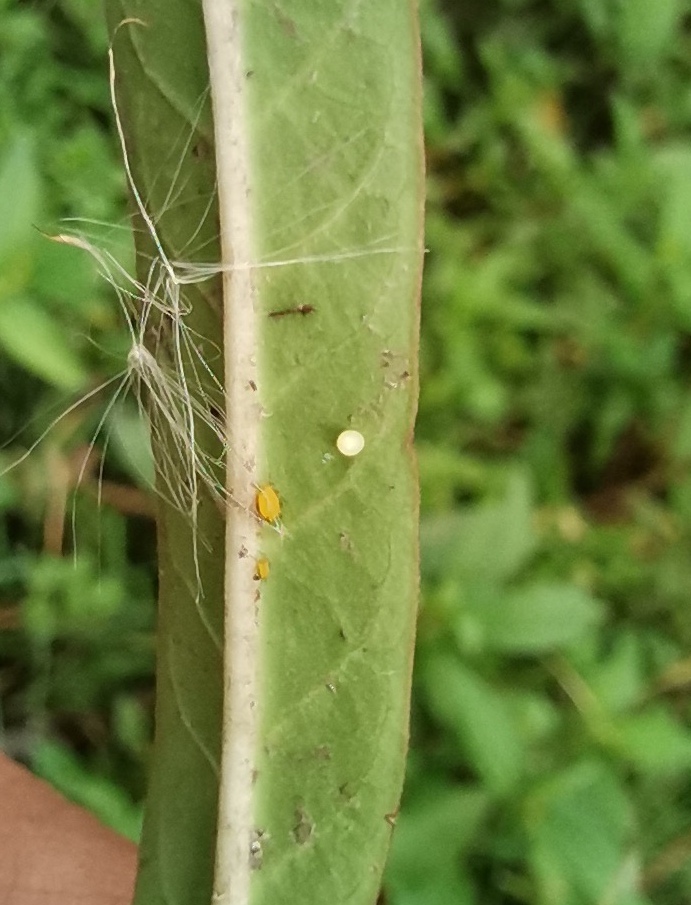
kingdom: Animalia
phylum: Arthropoda
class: Insecta
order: Lepidoptera
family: Nymphalidae
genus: Danaus
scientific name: Danaus plexippus
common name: Monarch
